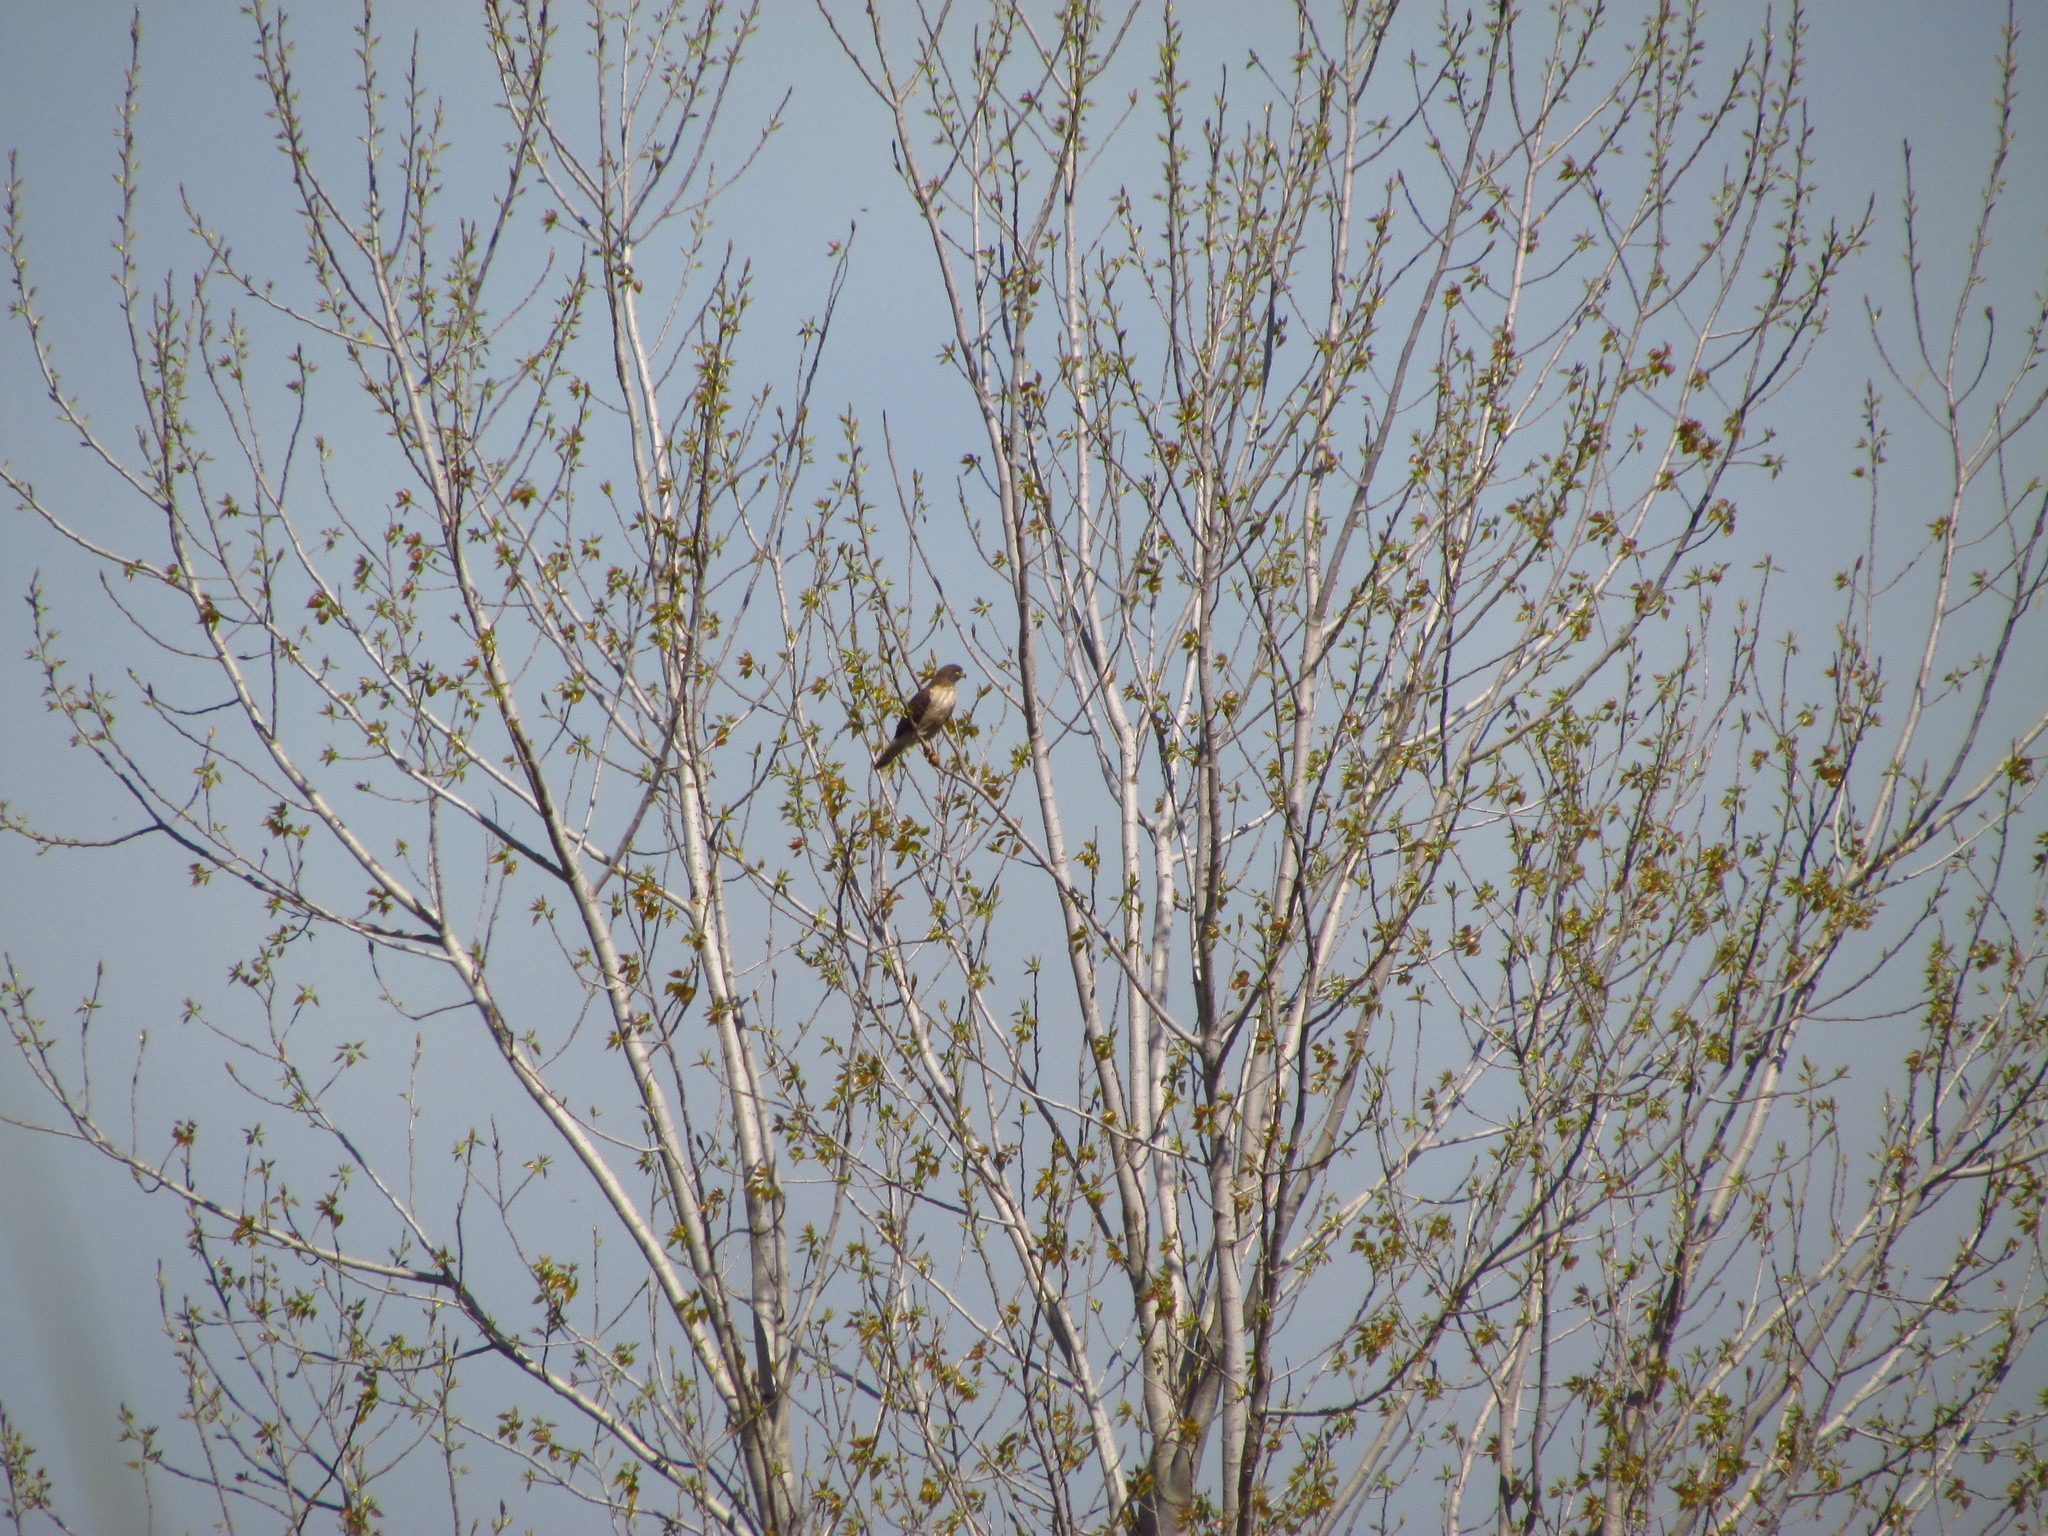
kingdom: Animalia
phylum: Chordata
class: Aves
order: Accipitriformes
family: Accipitridae
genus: Rupornis
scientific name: Rupornis magnirostris
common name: Roadside hawk
